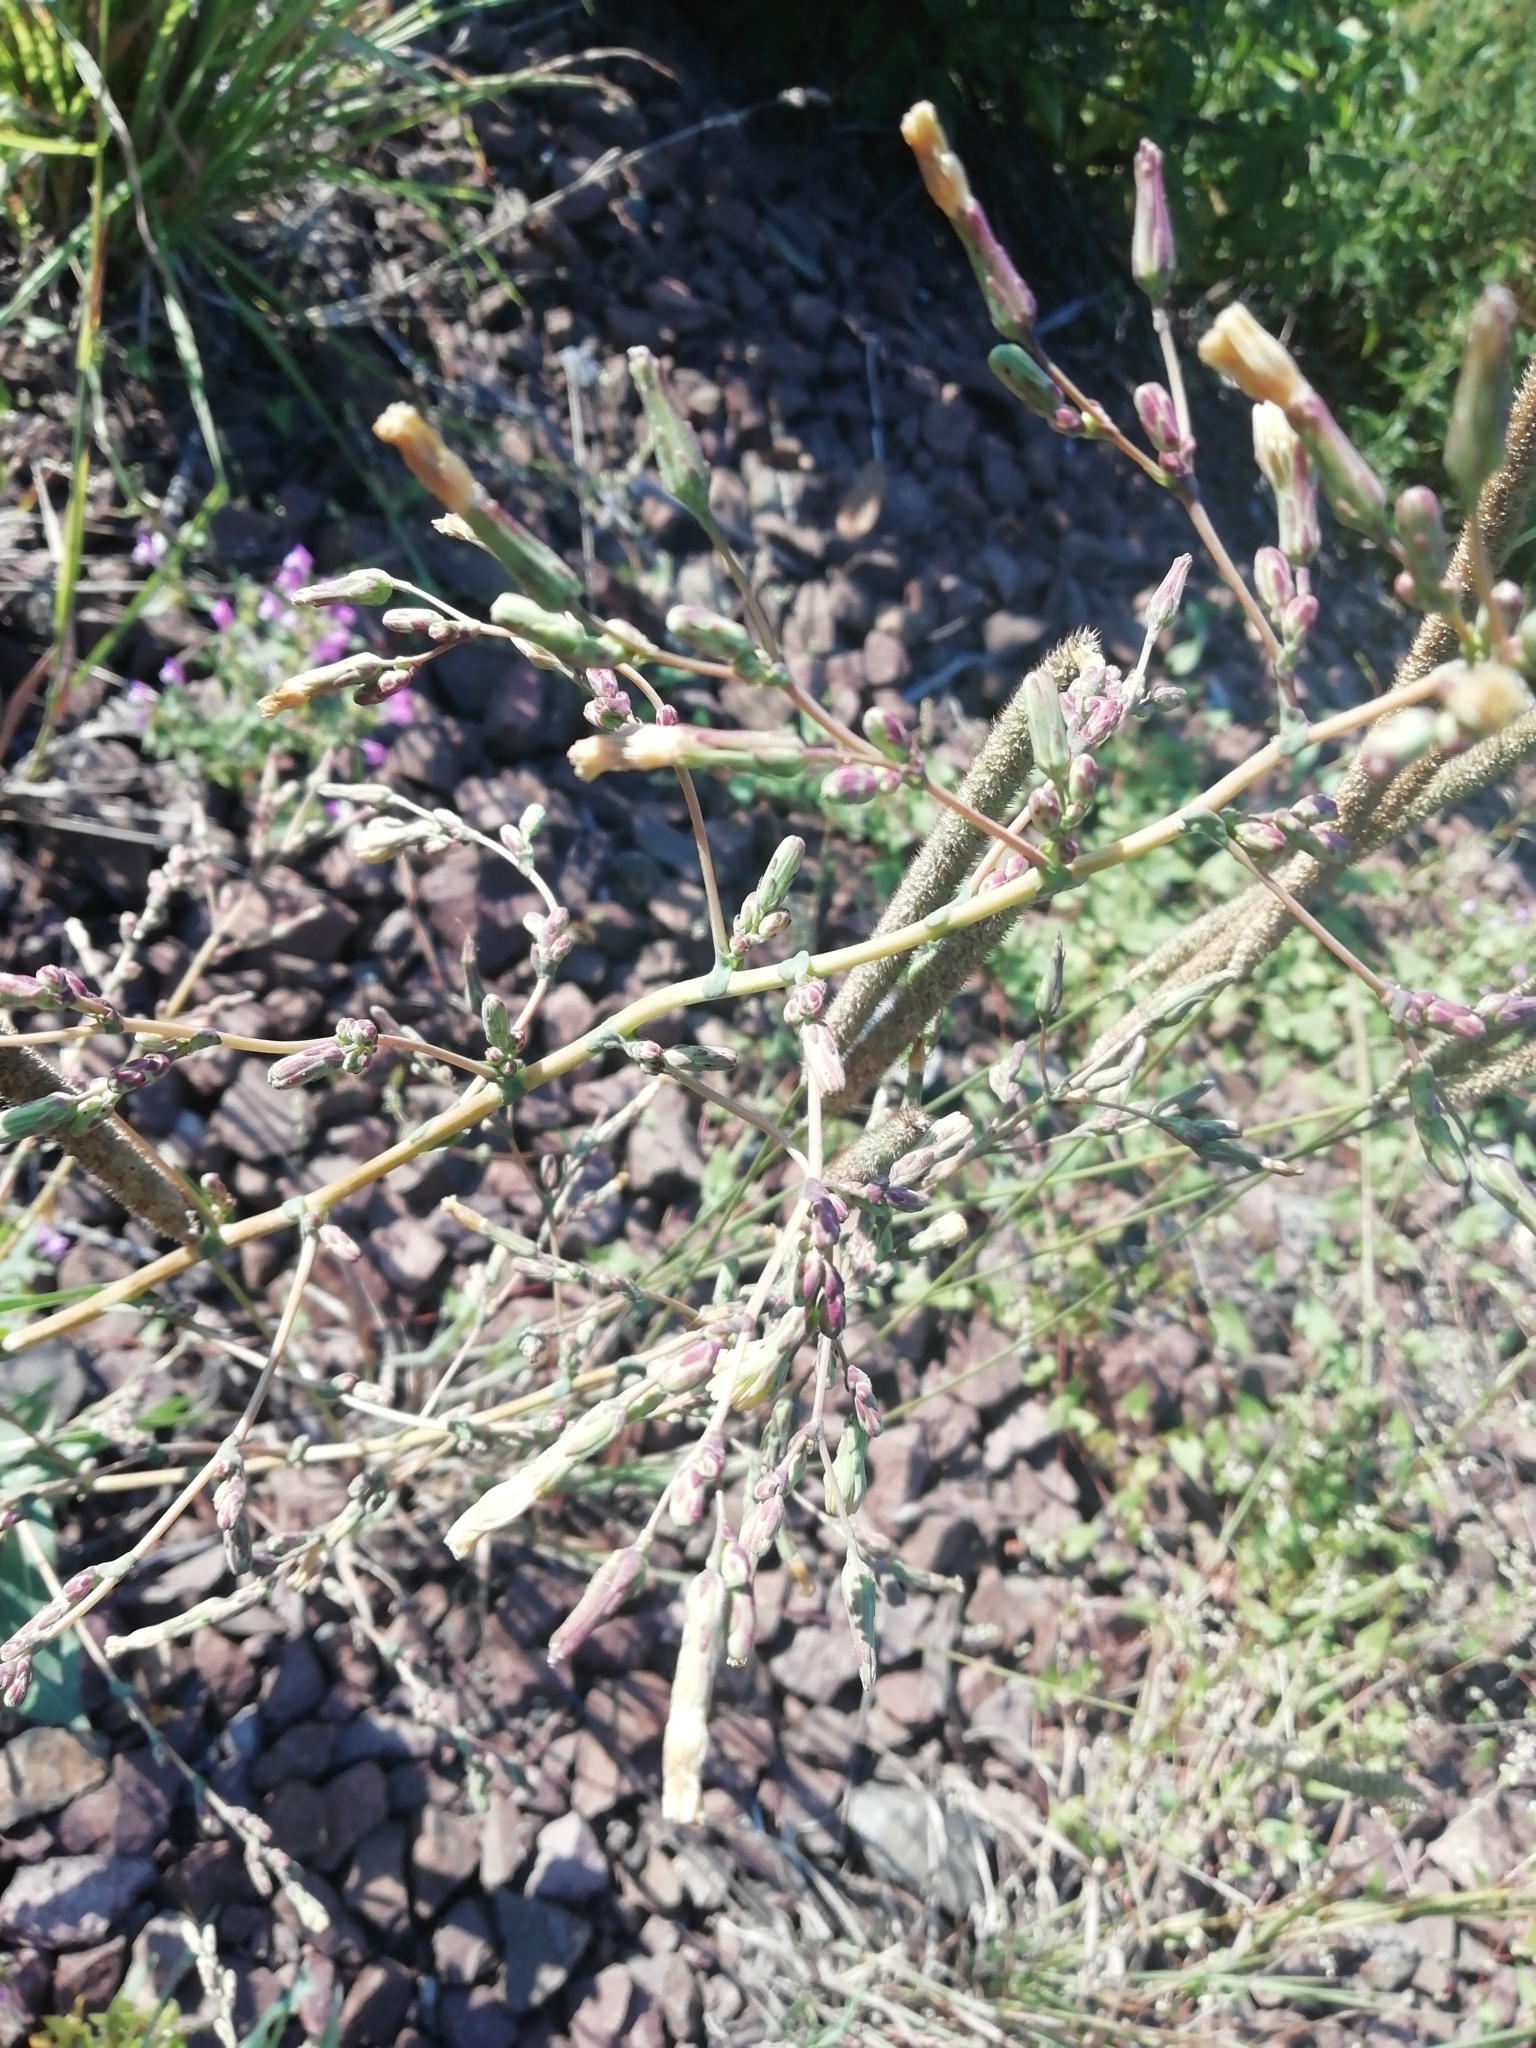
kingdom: Plantae
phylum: Tracheophyta
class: Magnoliopsida
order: Asterales
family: Asteraceae
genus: Lactuca
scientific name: Lactuca serriola
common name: Prickly lettuce
